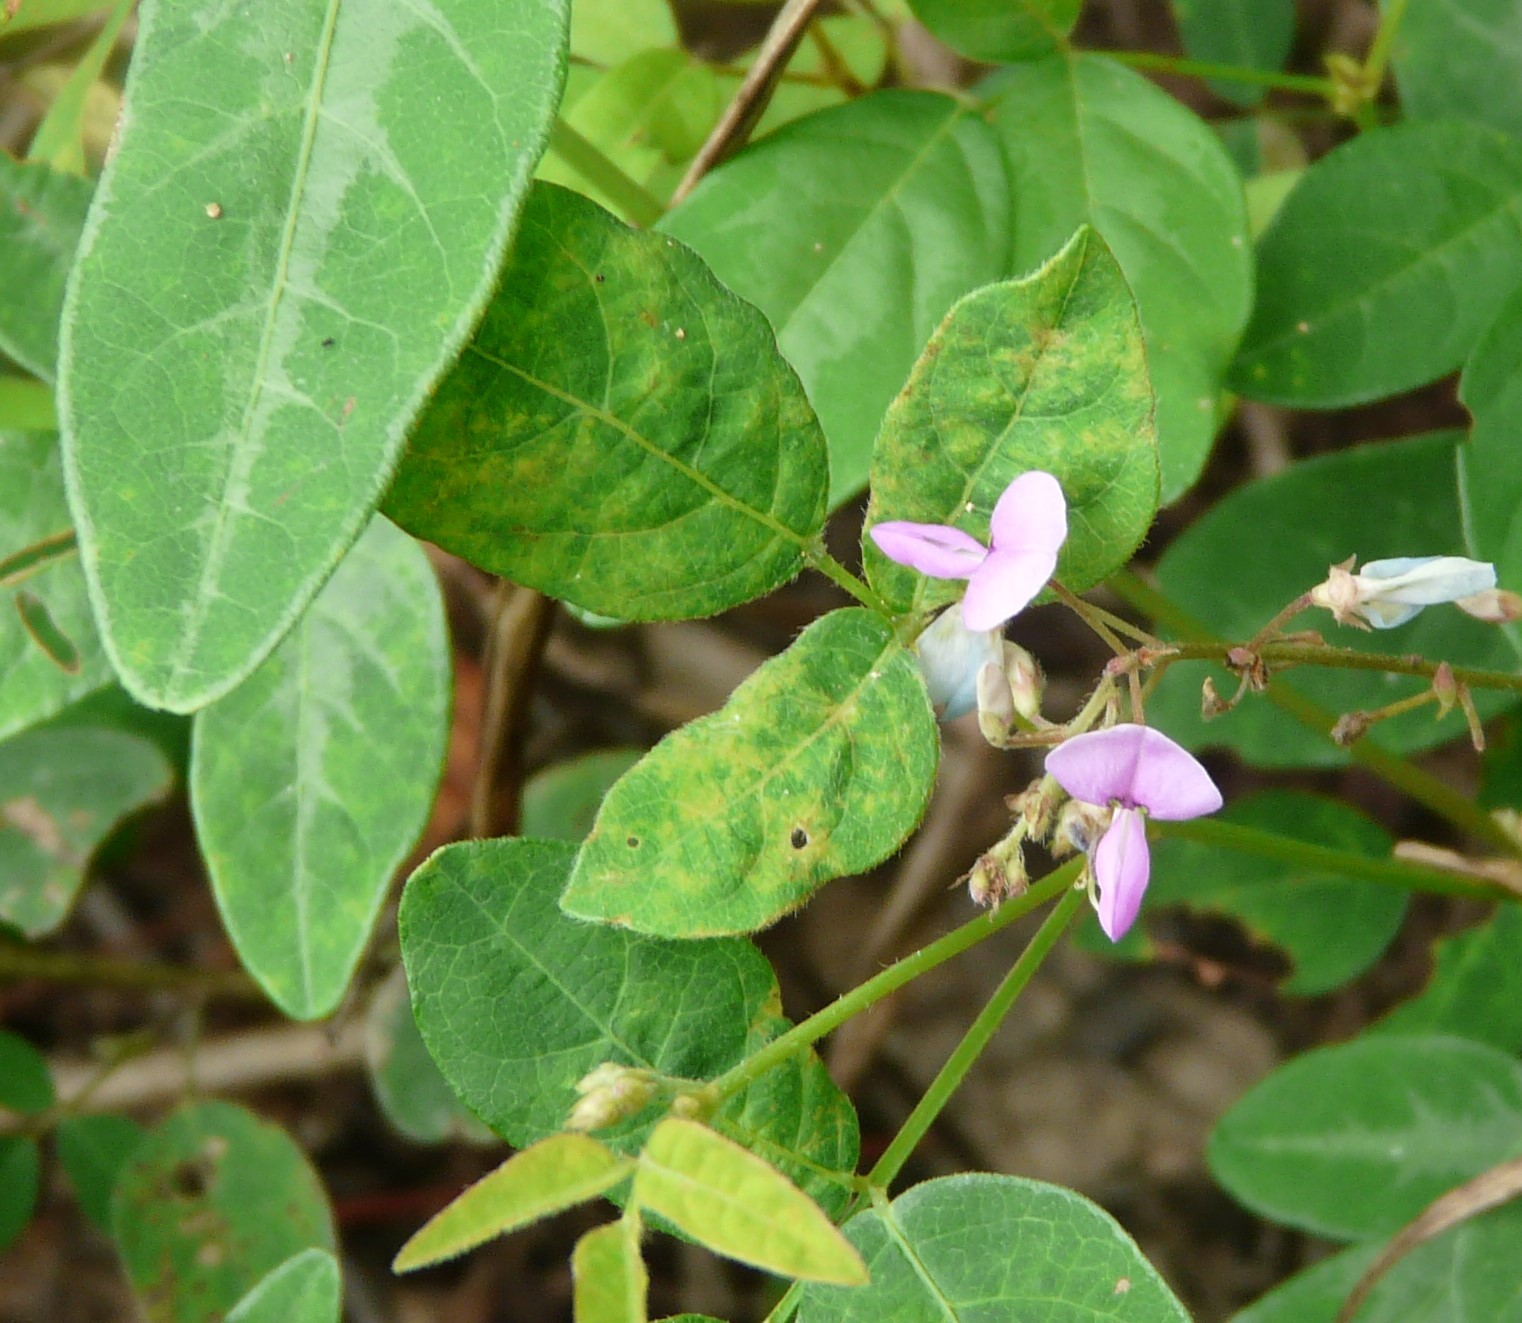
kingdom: Plantae
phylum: Tracheophyta
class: Magnoliopsida
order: Fabales
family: Fabaceae
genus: Desmodium
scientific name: Desmodium paniculatum
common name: Panicled tick-clover
